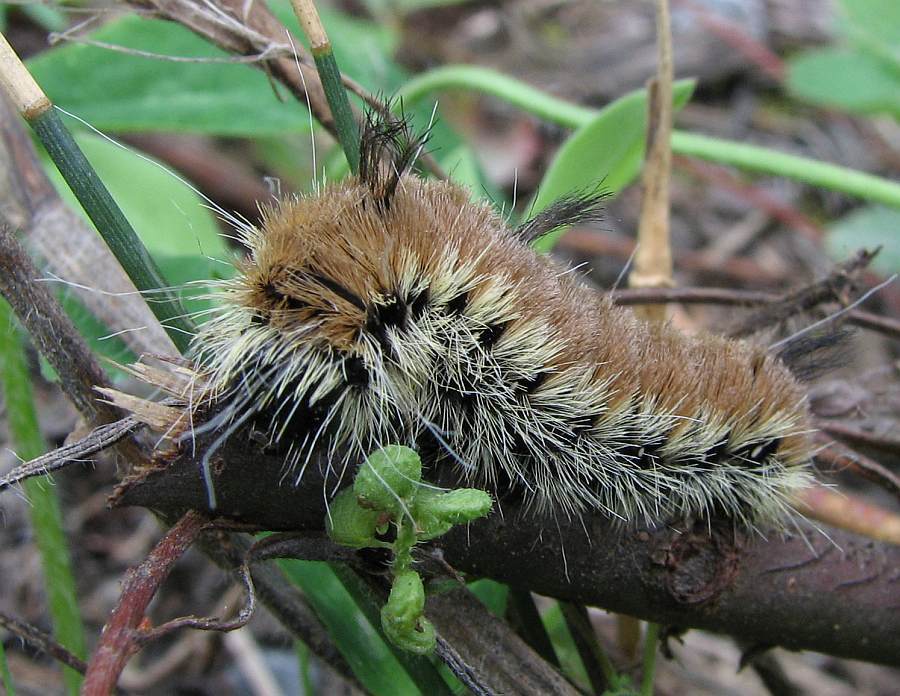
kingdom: Animalia
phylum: Arthropoda
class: Insecta
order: Lepidoptera
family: Noctuidae
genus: Acronicta
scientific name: Acronicta insita
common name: Large gray dagger
